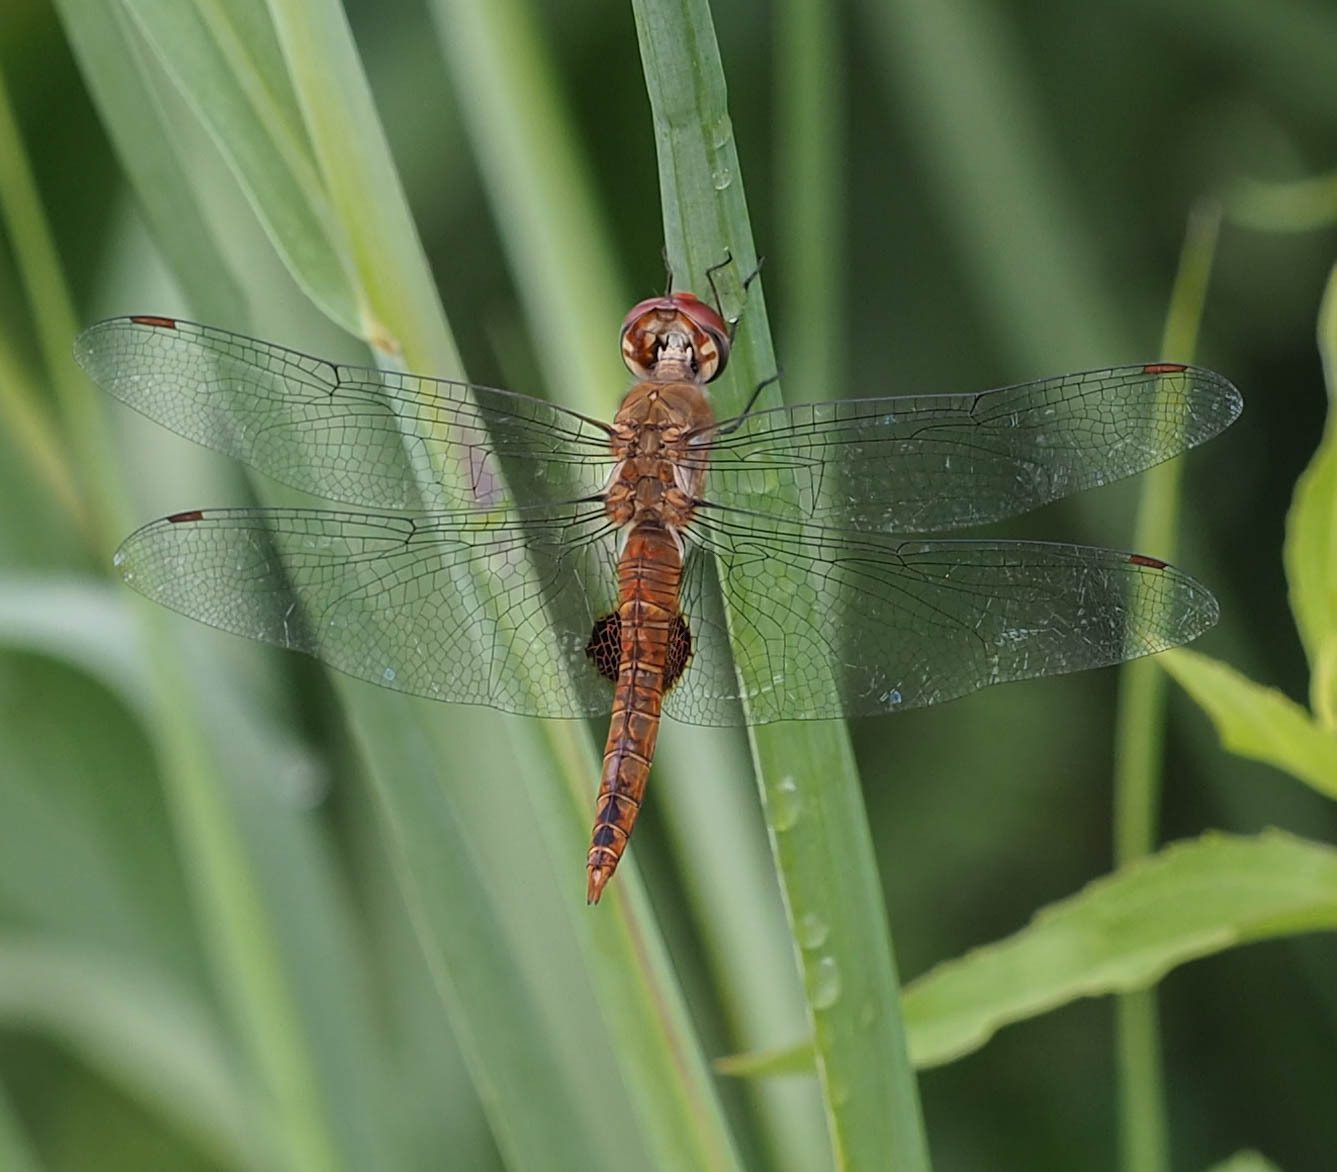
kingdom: Animalia
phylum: Arthropoda
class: Insecta
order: Odonata
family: Libellulidae
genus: Pantala
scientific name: Pantala hymenaea
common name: Spot-winged glider
